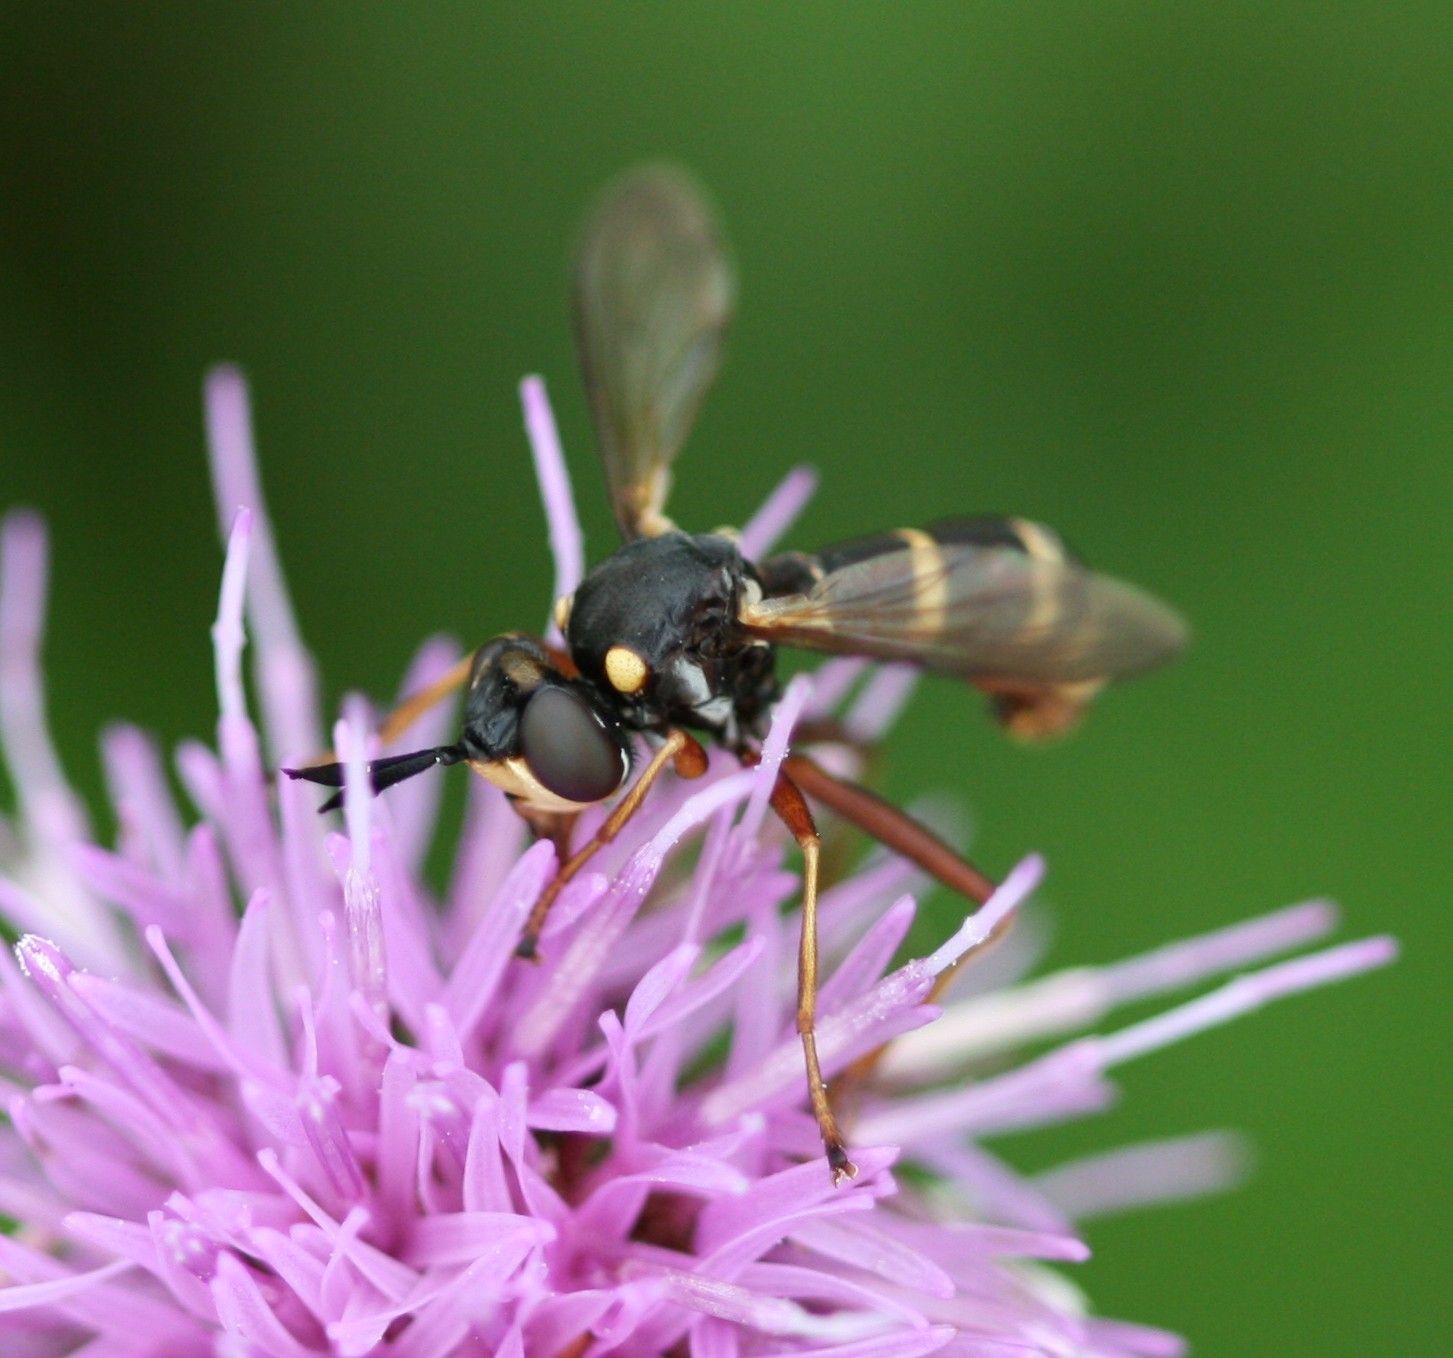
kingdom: Animalia
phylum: Arthropoda
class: Insecta
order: Diptera
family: Conopidae
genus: Conops
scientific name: Conops quadrifasciatus
